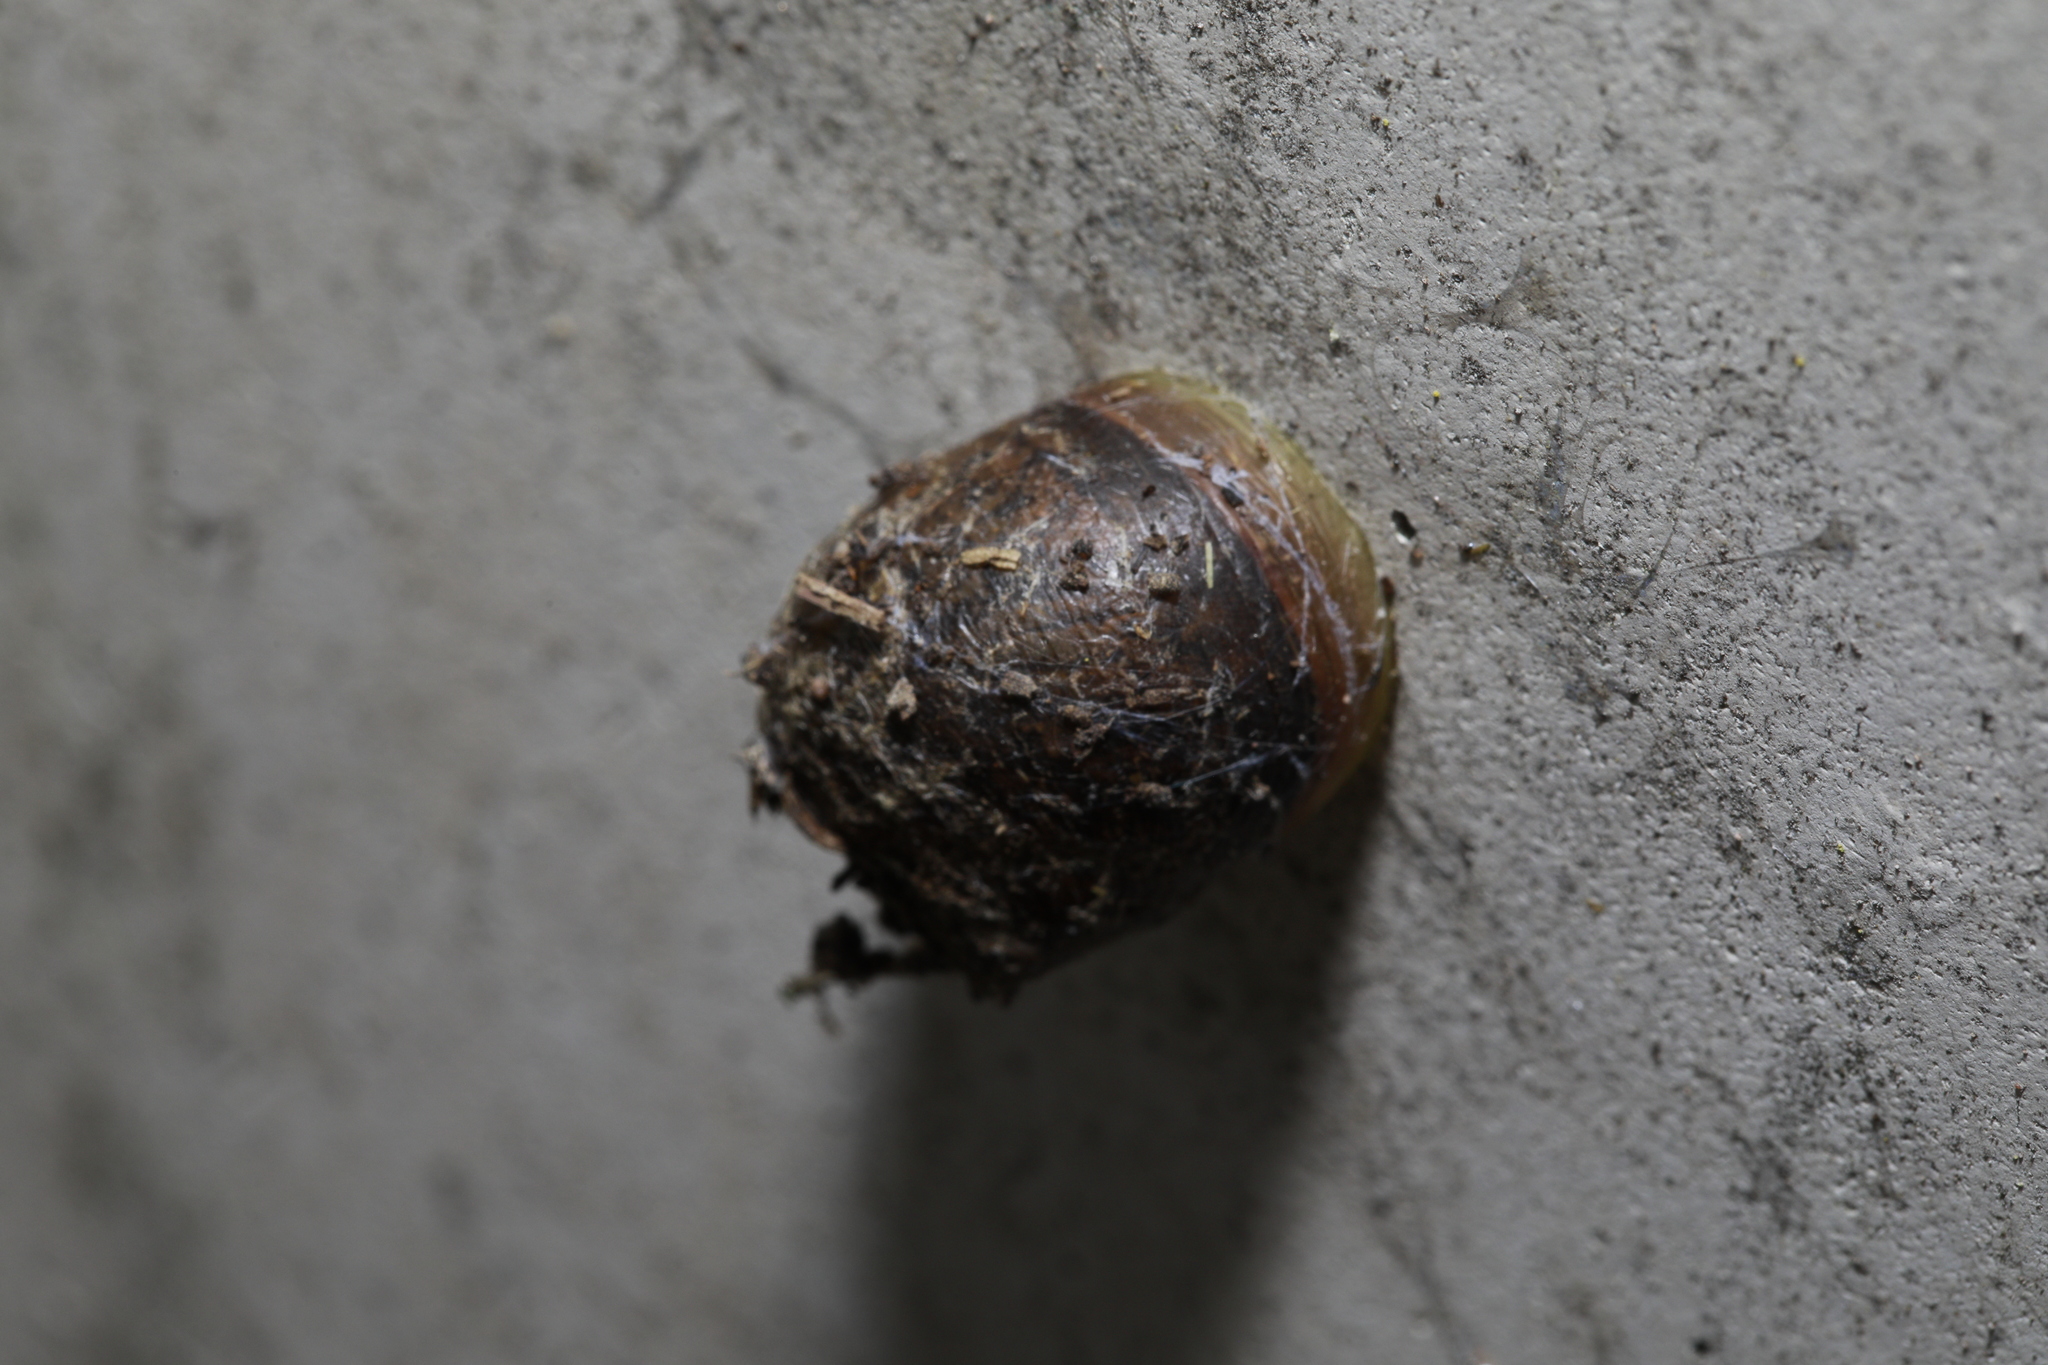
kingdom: Animalia
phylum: Mollusca
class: Gastropoda
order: Stylommatophora
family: Helicidae
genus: Cornu
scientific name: Cornu aspersum
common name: Brown garden snail
